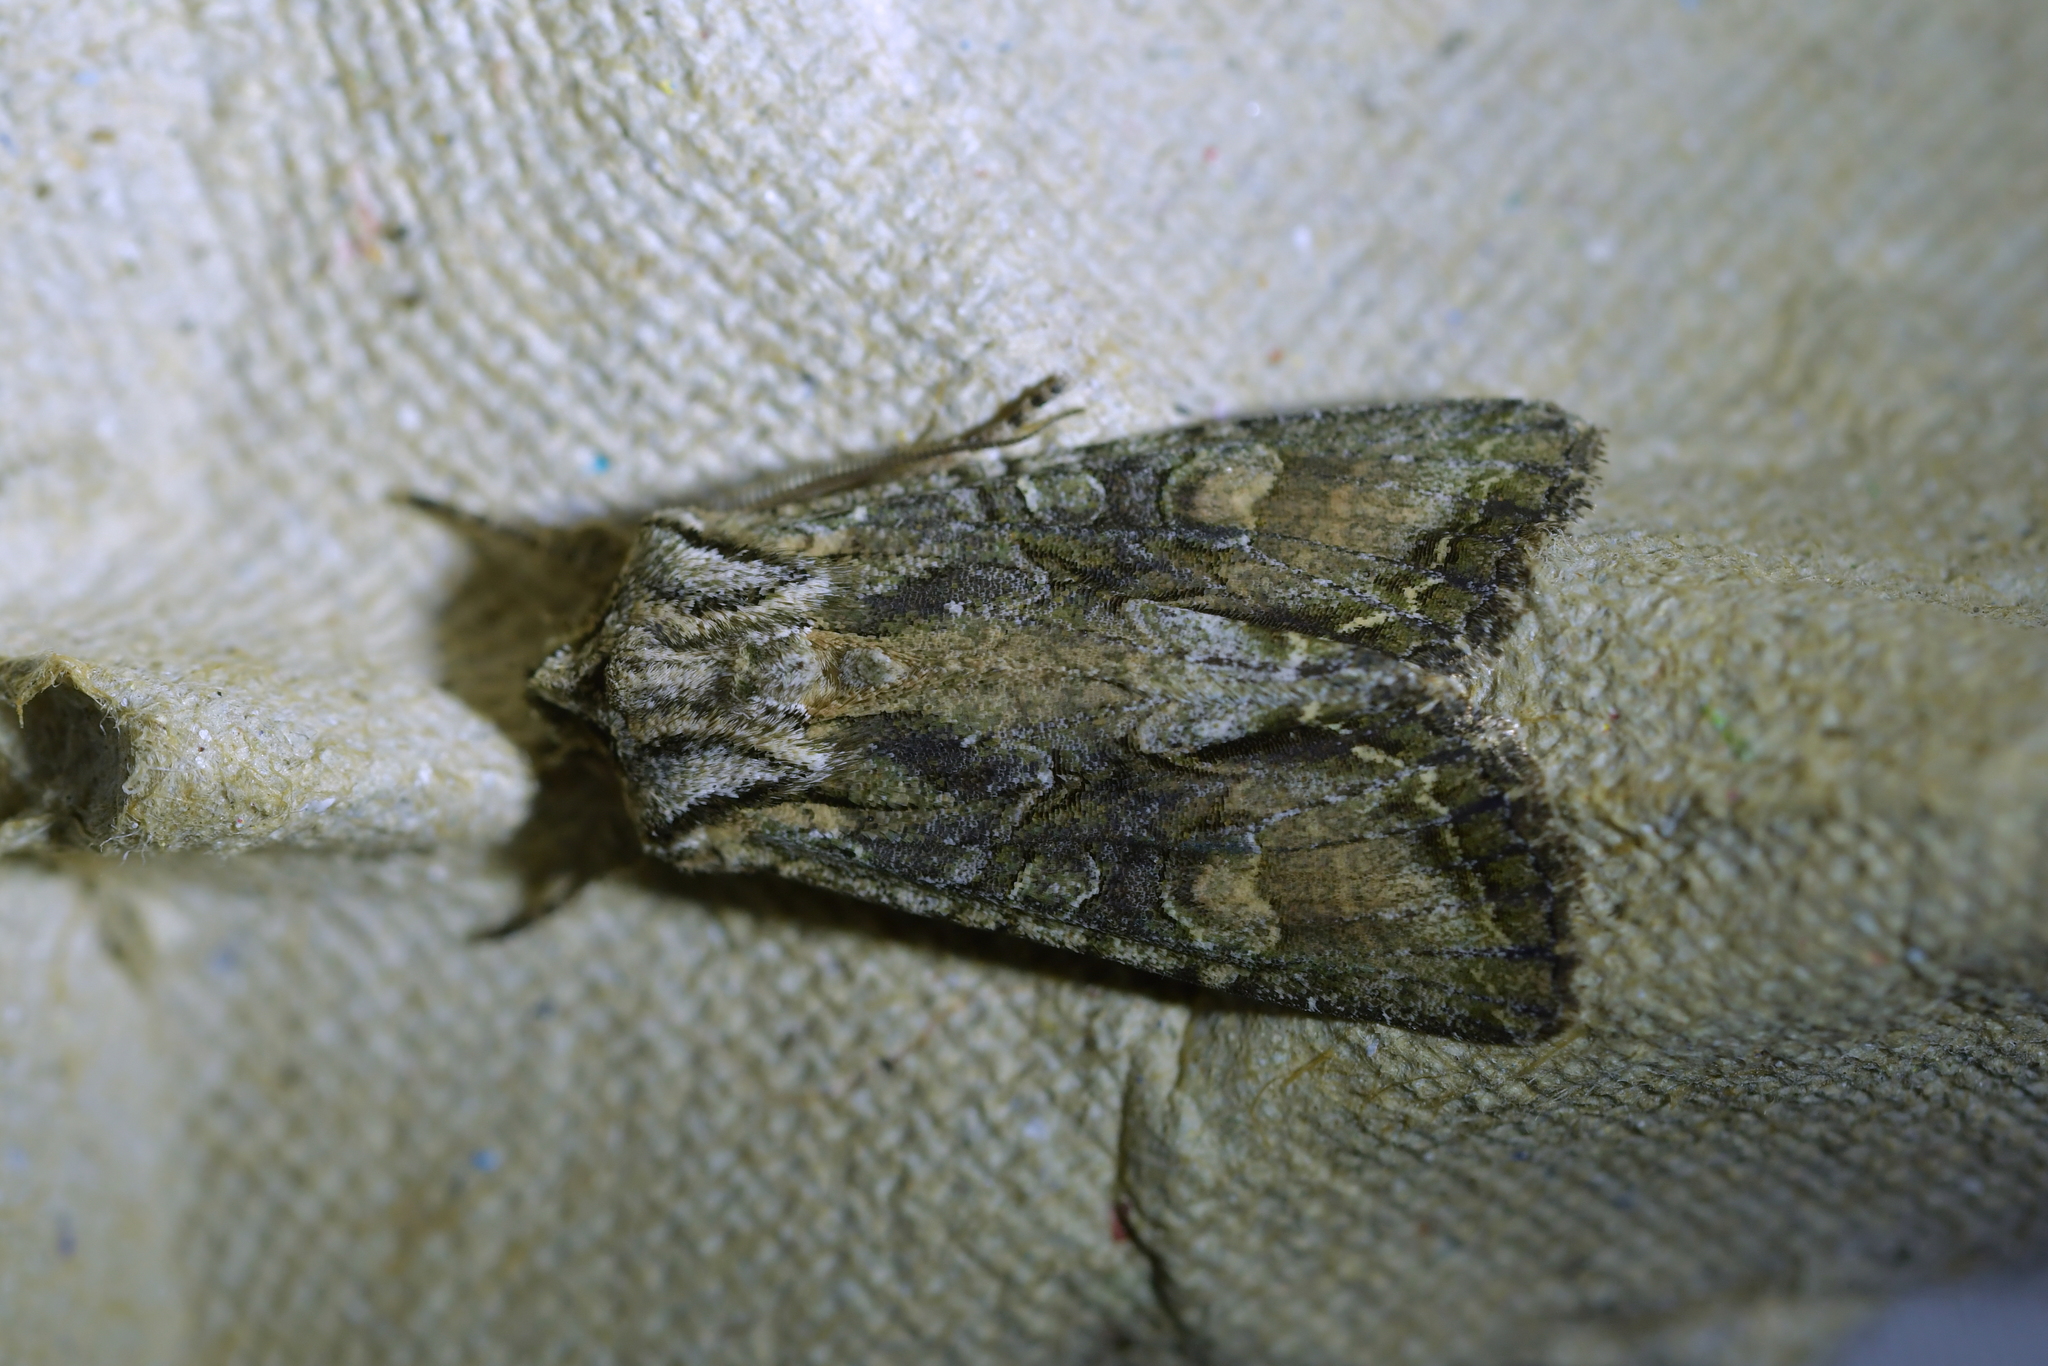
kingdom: Animalia
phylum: Arthropoda
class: Insecta
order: Lepidoptera
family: Noctuidae
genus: Ichneutica
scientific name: Ichneutica mutans
